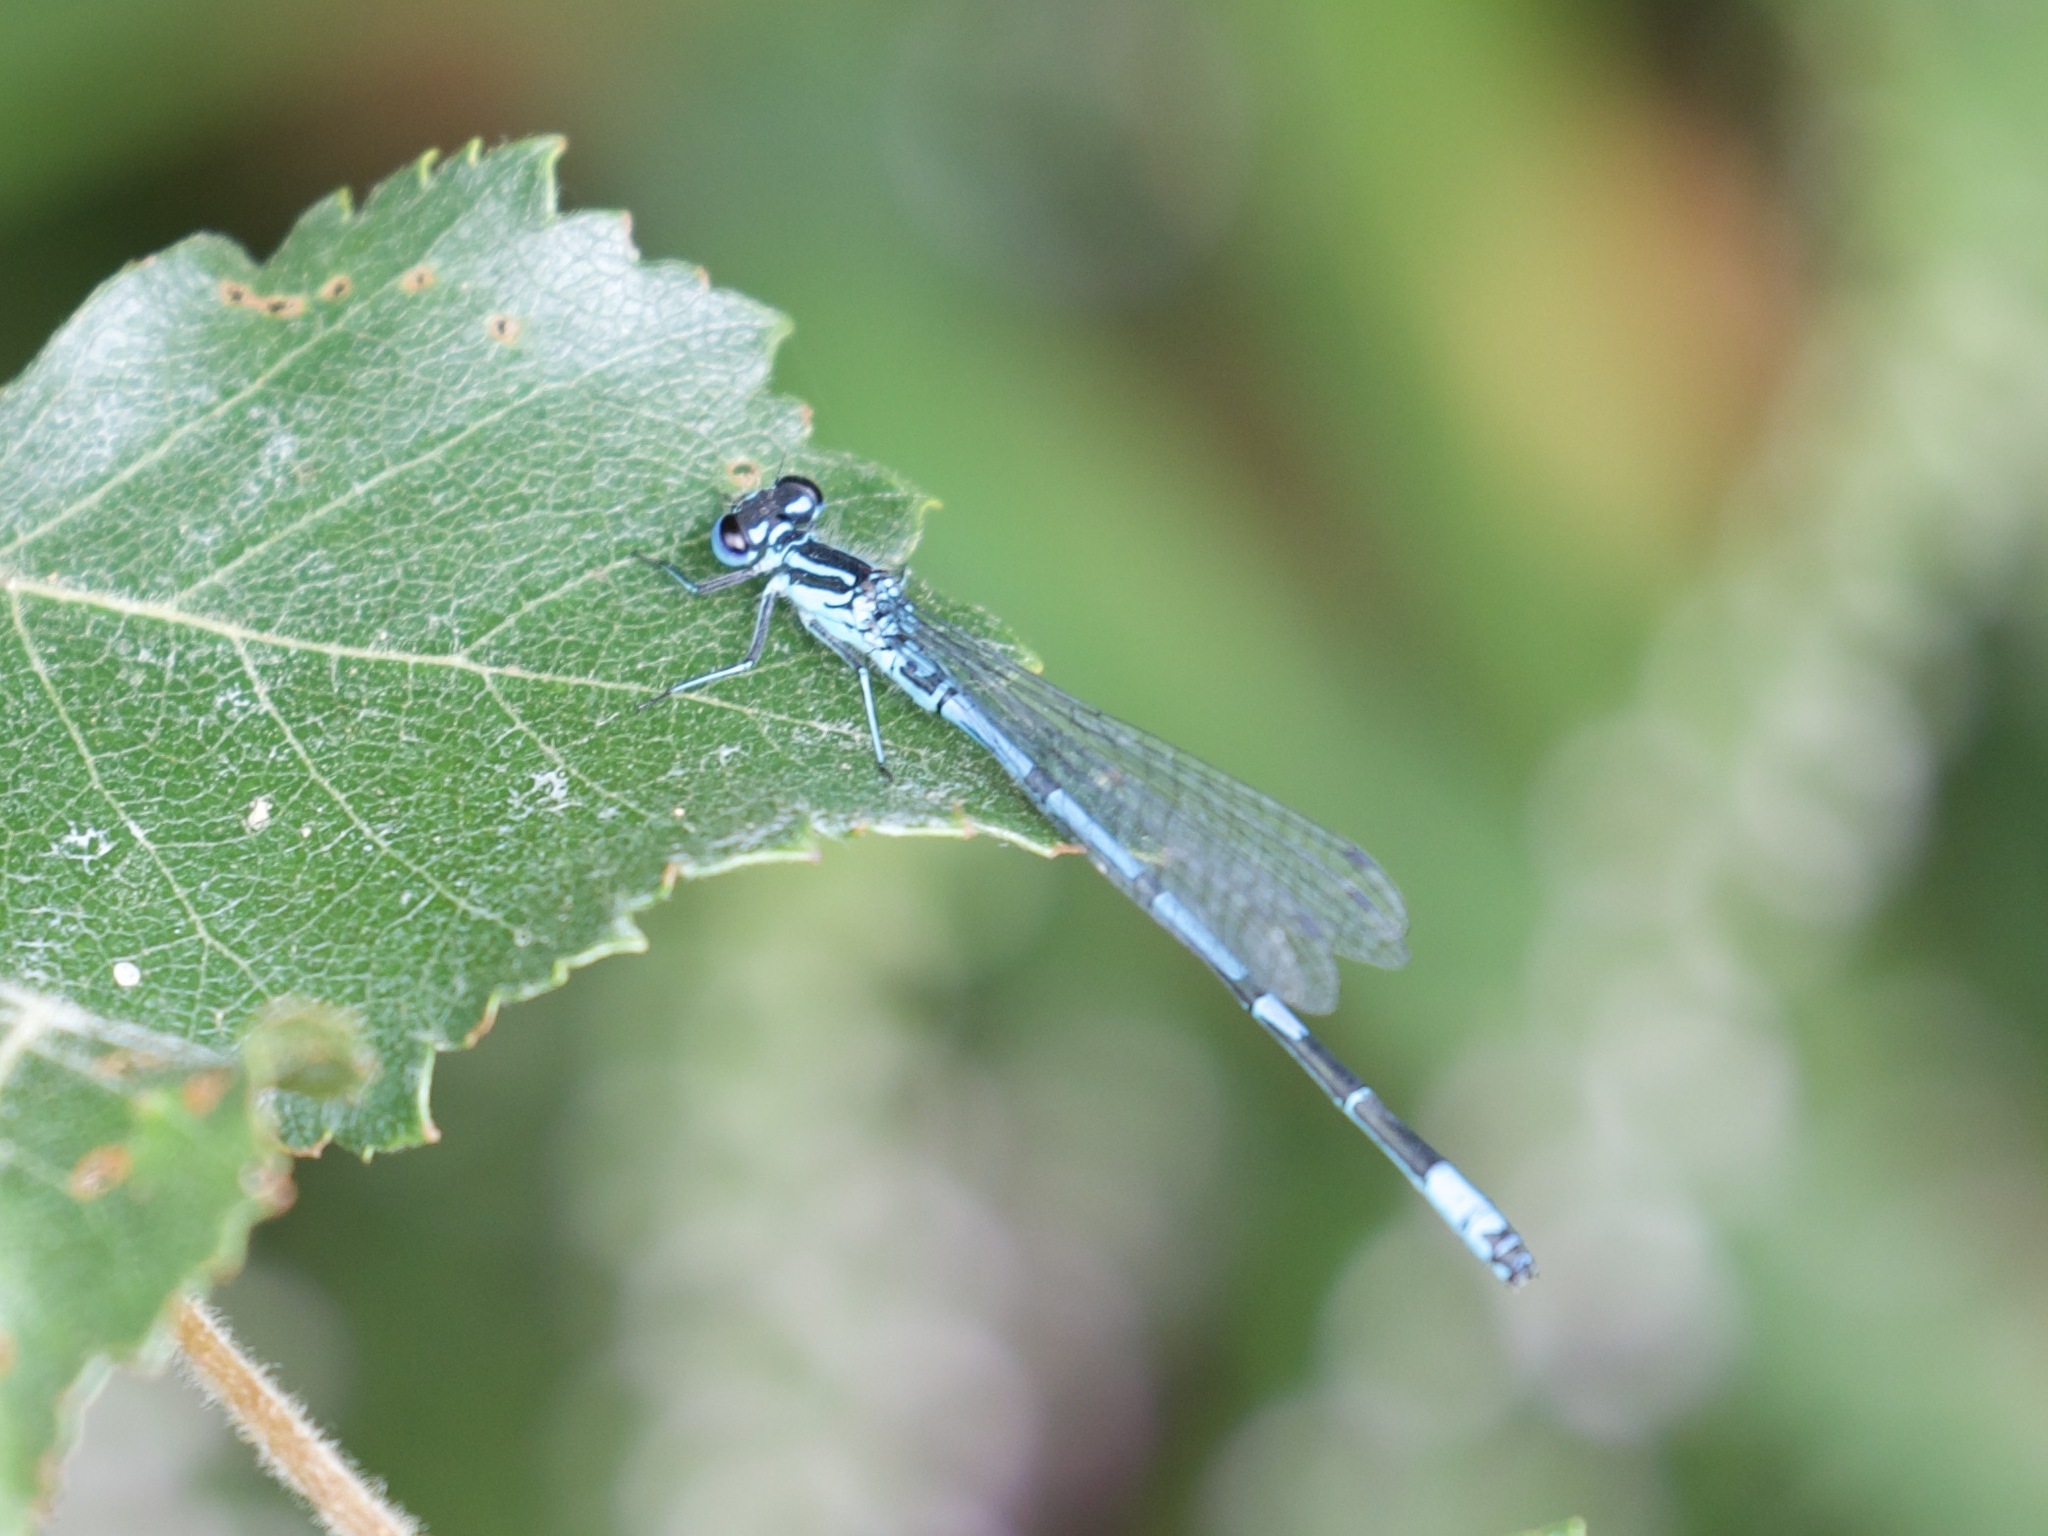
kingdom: Animalia
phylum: Arthropoda
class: Insecta
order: Odonata
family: Coenagrionidae
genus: Coenagrion
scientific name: Coenagrion puella
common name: Azure damselfly
